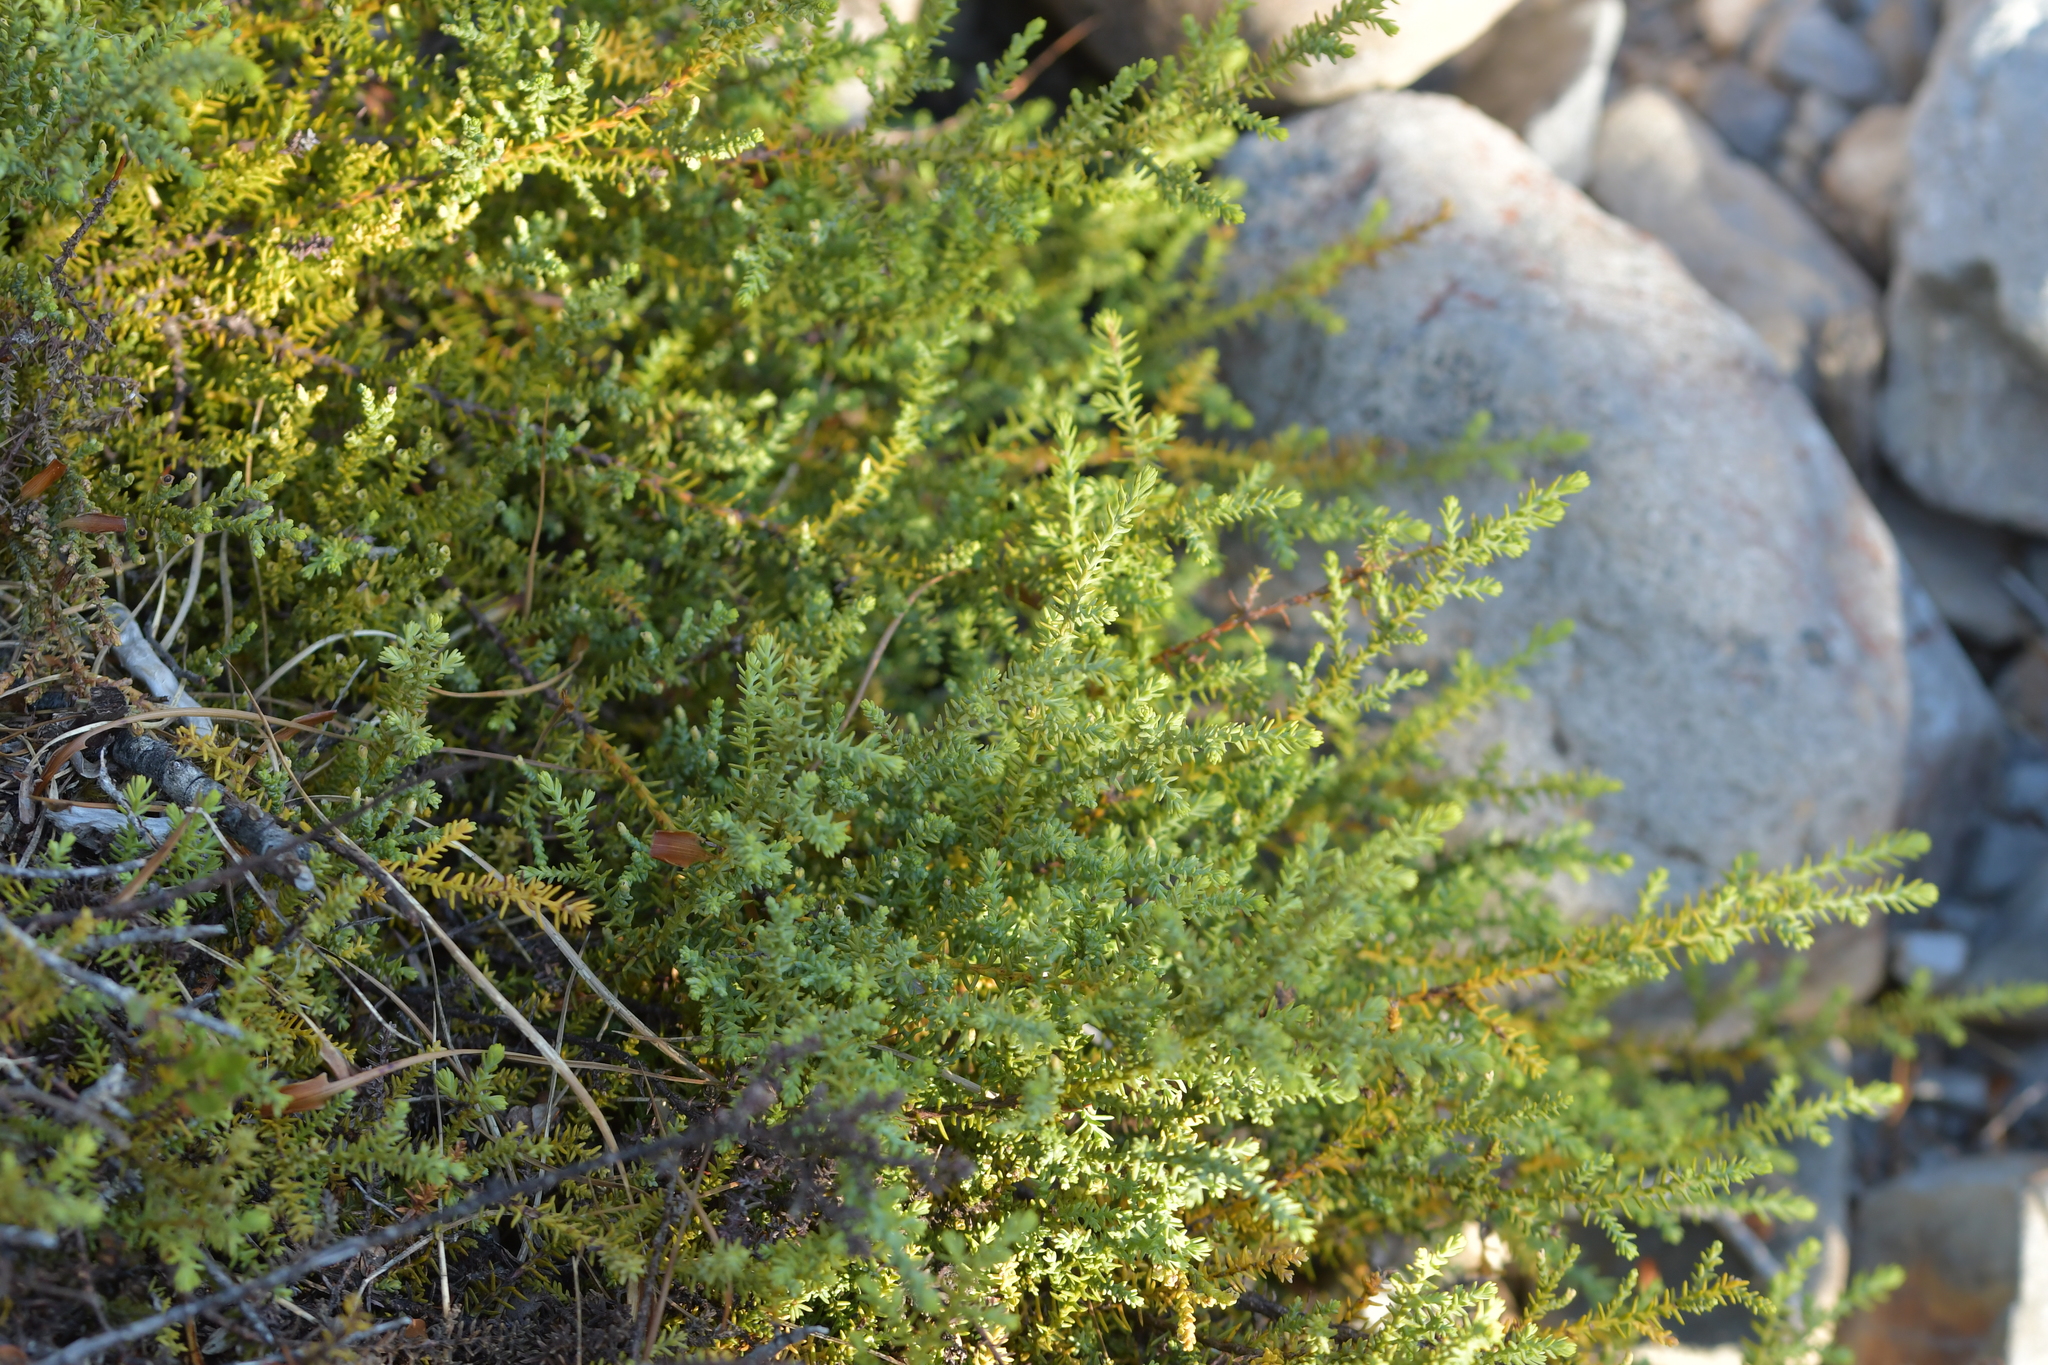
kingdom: Plantae
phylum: Tracheophyta
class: Pinopsida
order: Pinales
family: Podocarpaceae
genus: Lepidothamnus
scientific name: Lepidothamnus laxifolius
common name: Pygmy pine
